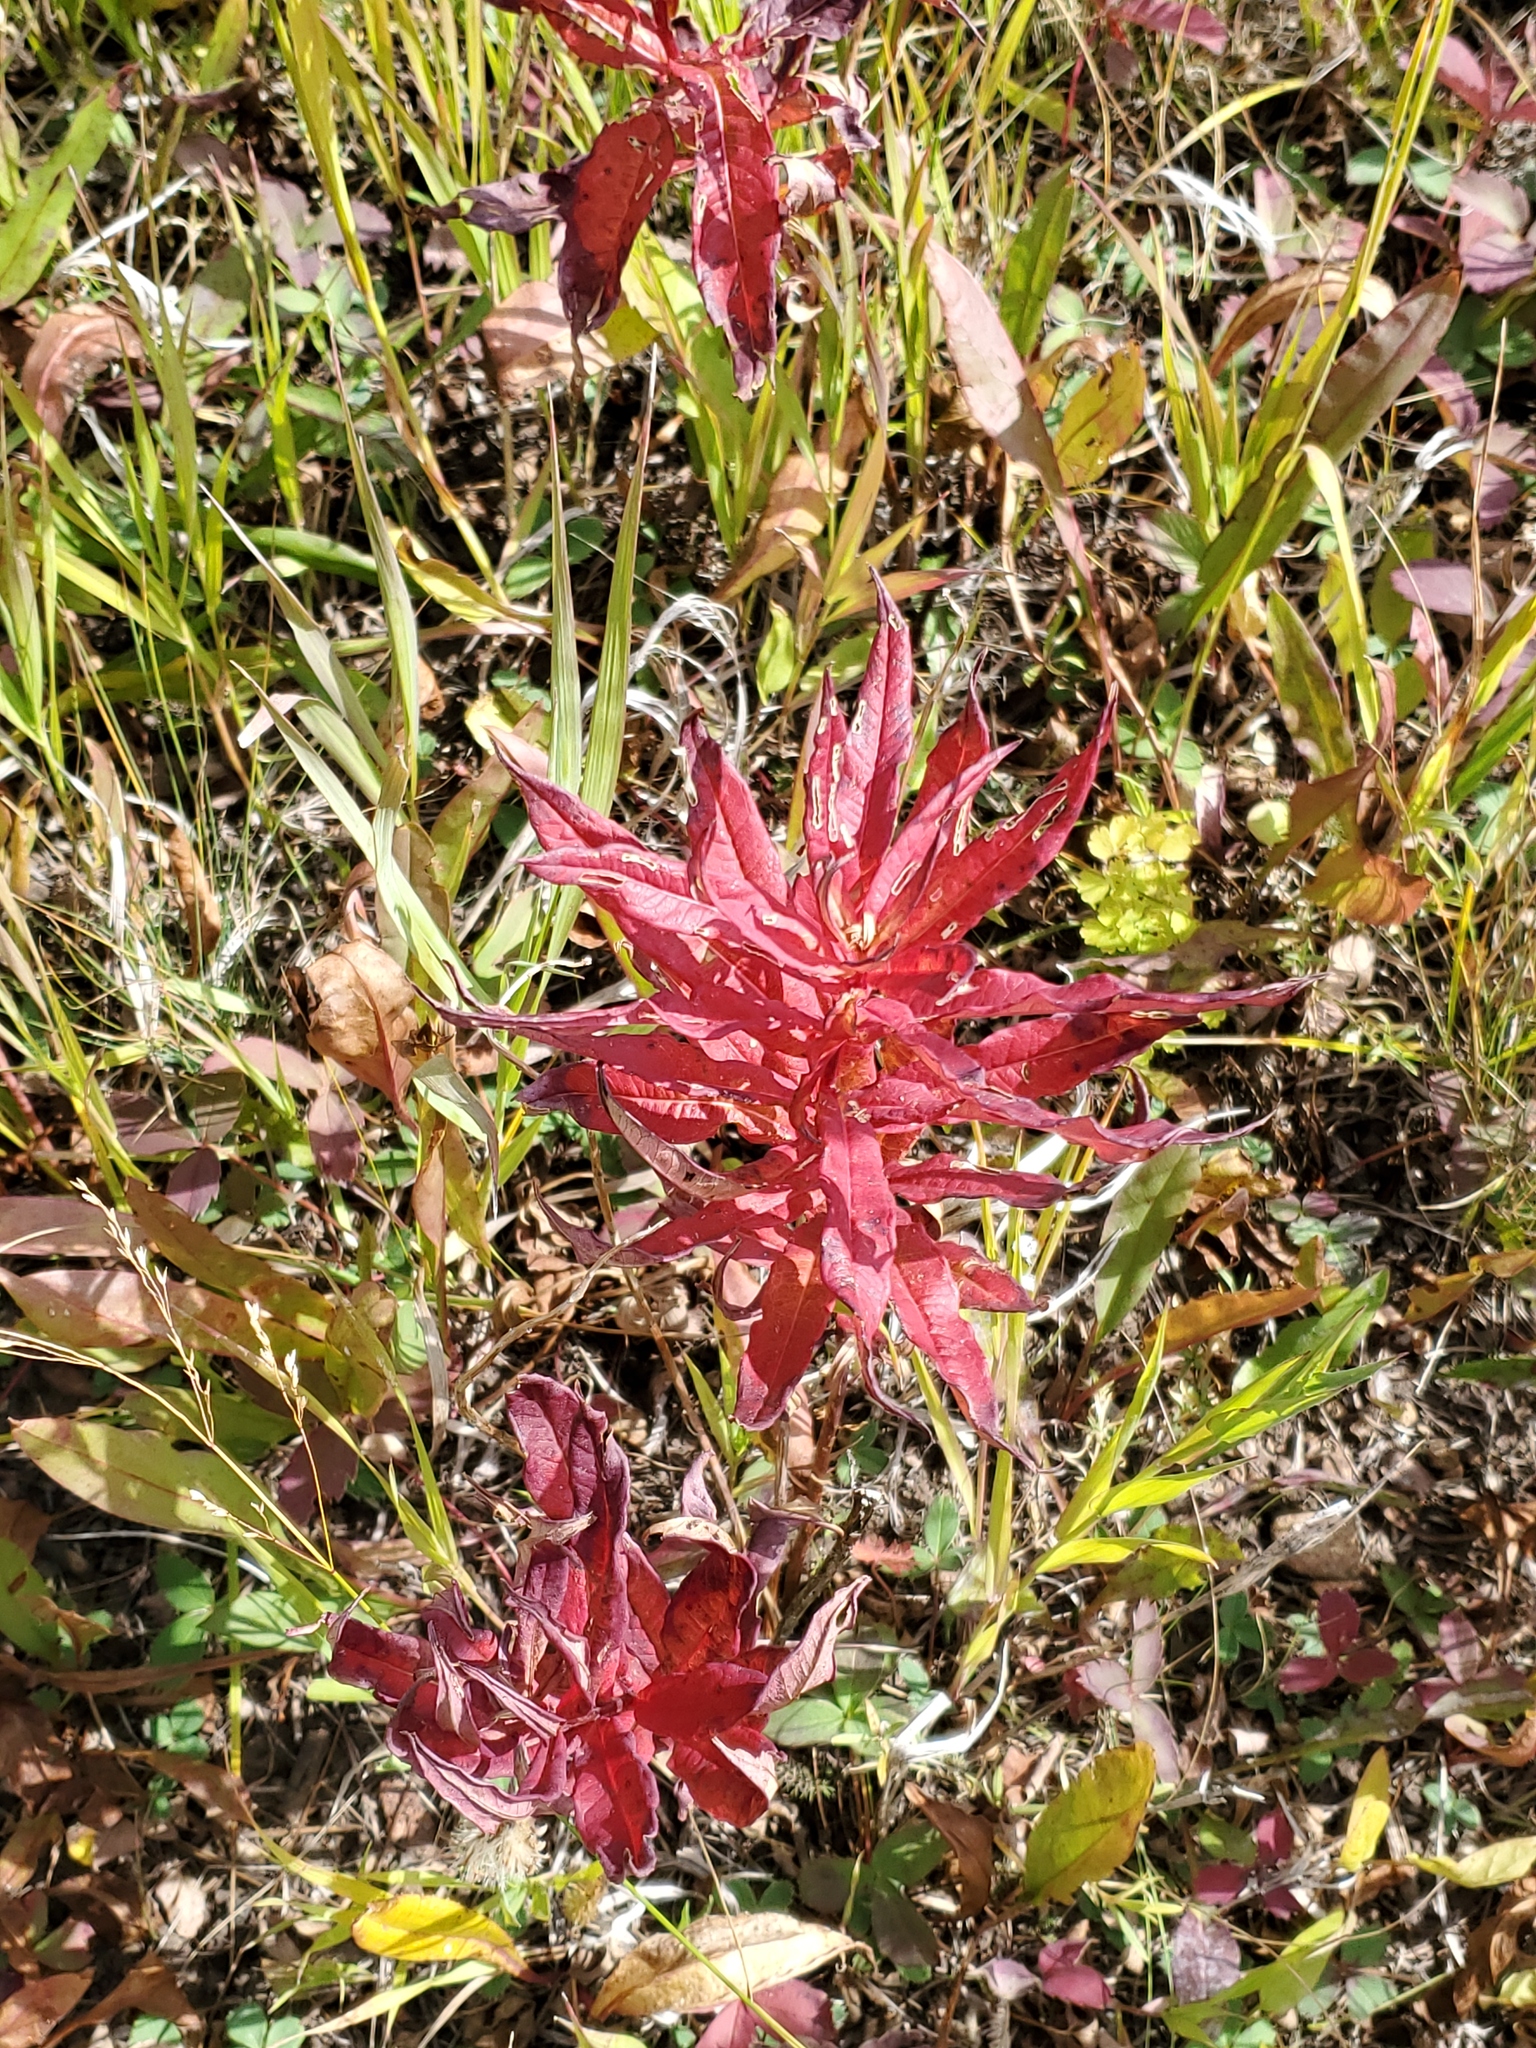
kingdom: Plantae
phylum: Tracheophyta
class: Magnoliopsida
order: Myrtales
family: Onagraceae
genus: Chamaenerion
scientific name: Chamaenerion angustifolium
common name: Fireweed
